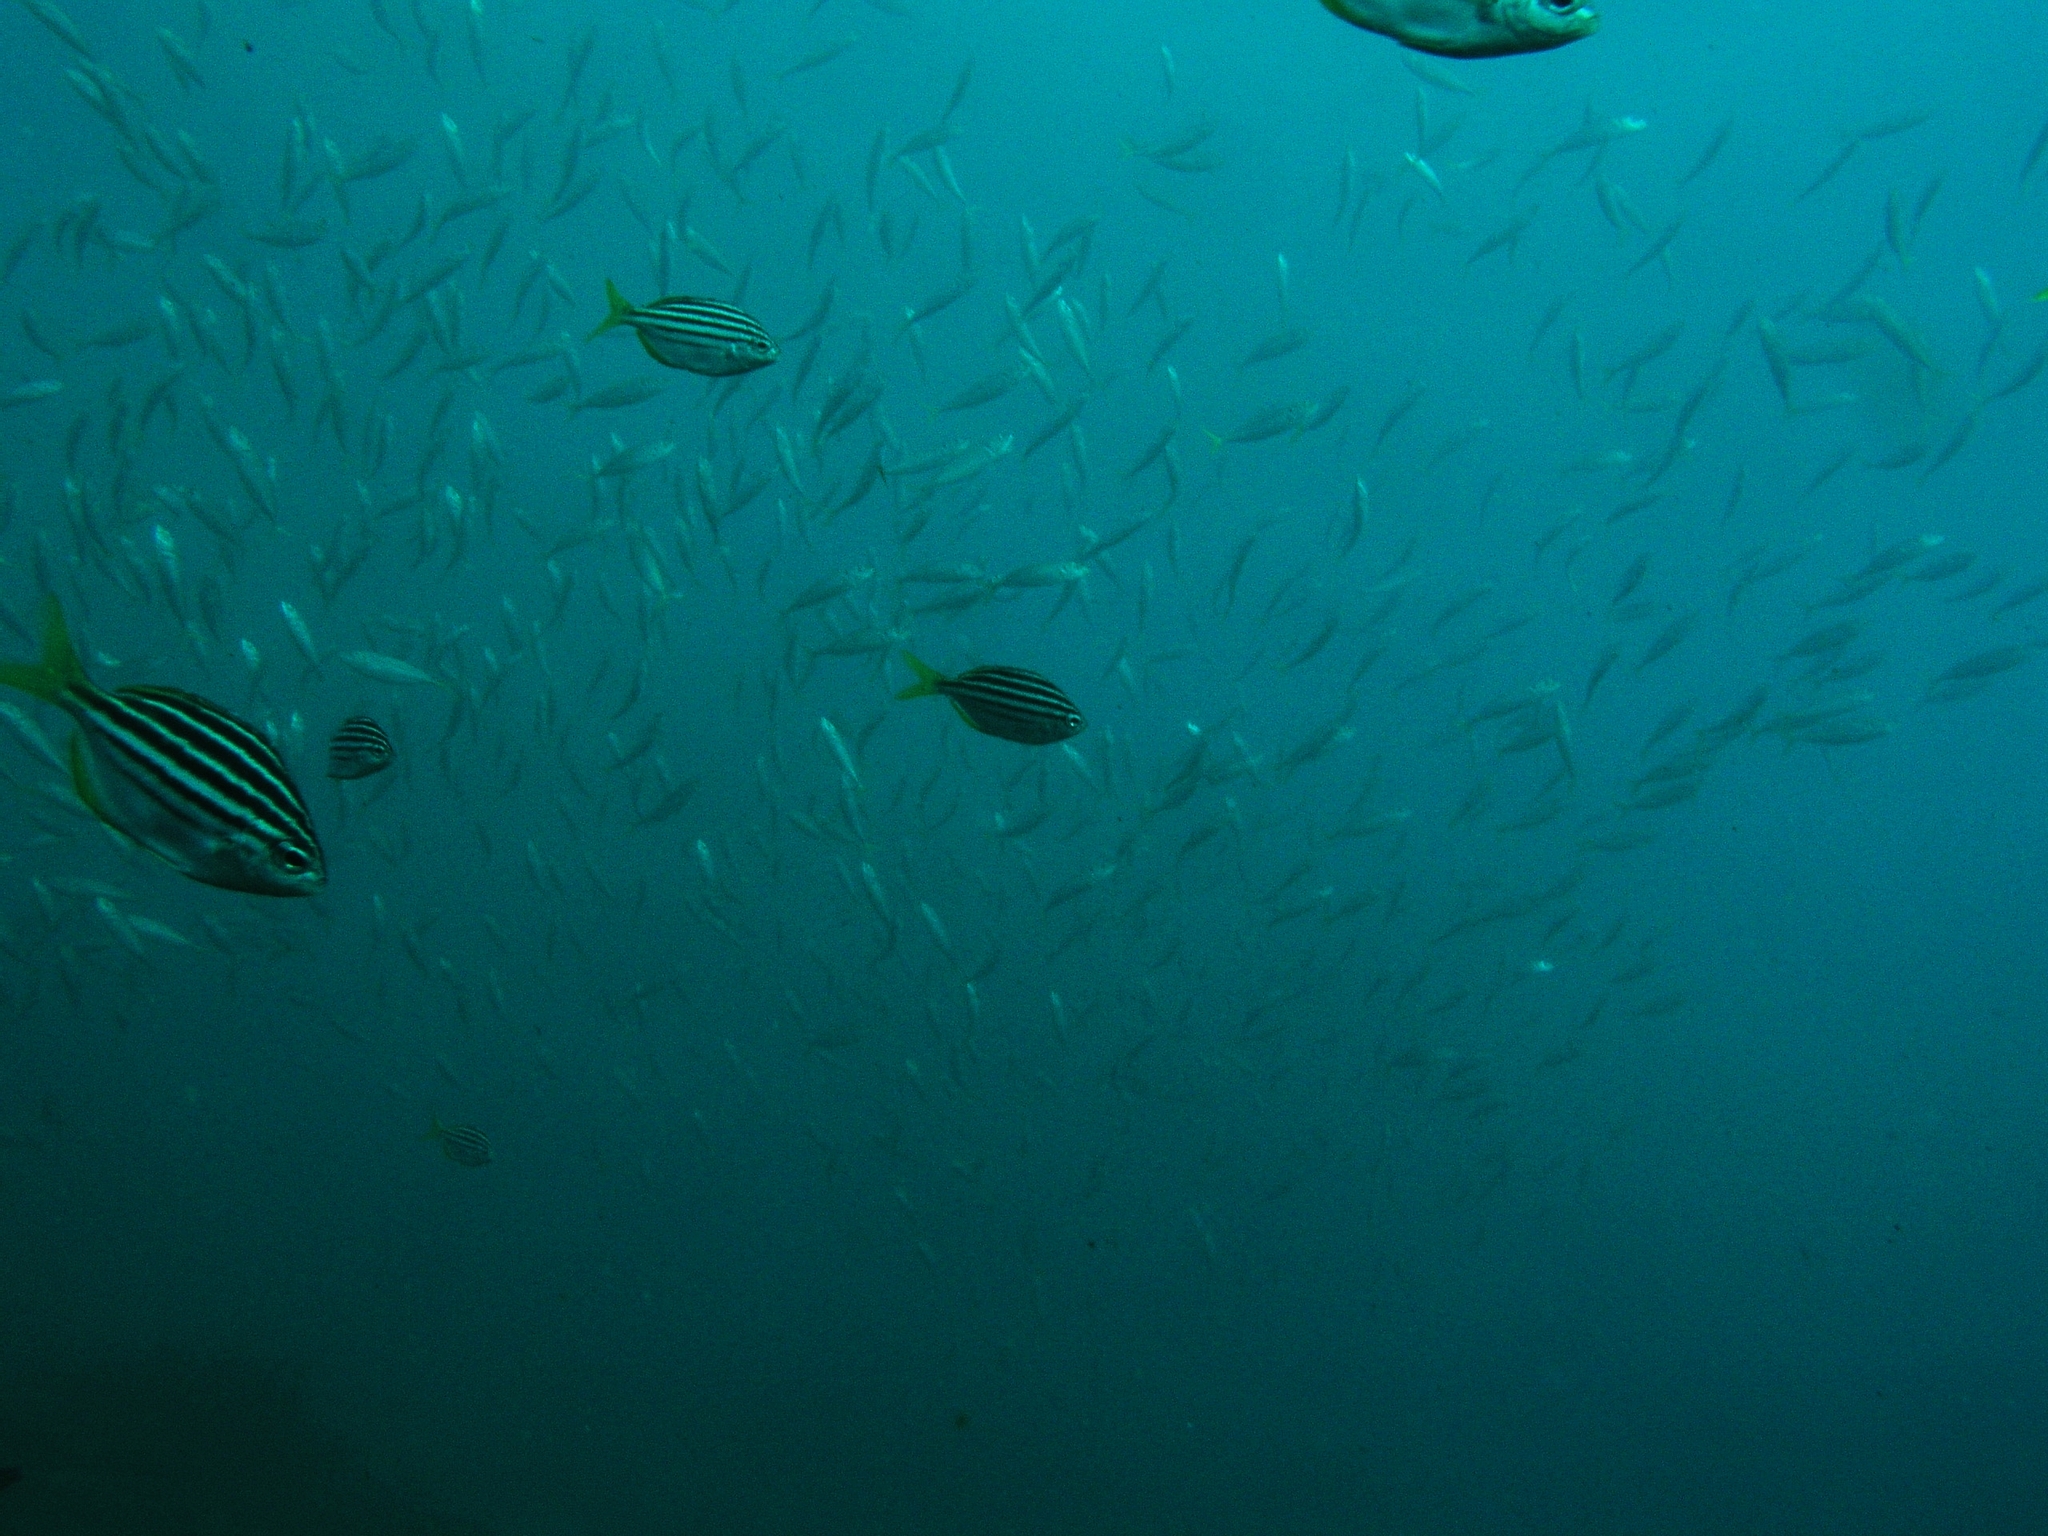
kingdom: Animalia
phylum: Chordata
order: Perciformes
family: Kyphosidae
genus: Atypichthys
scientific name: Atypichthys strigatus
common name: Australian mado
